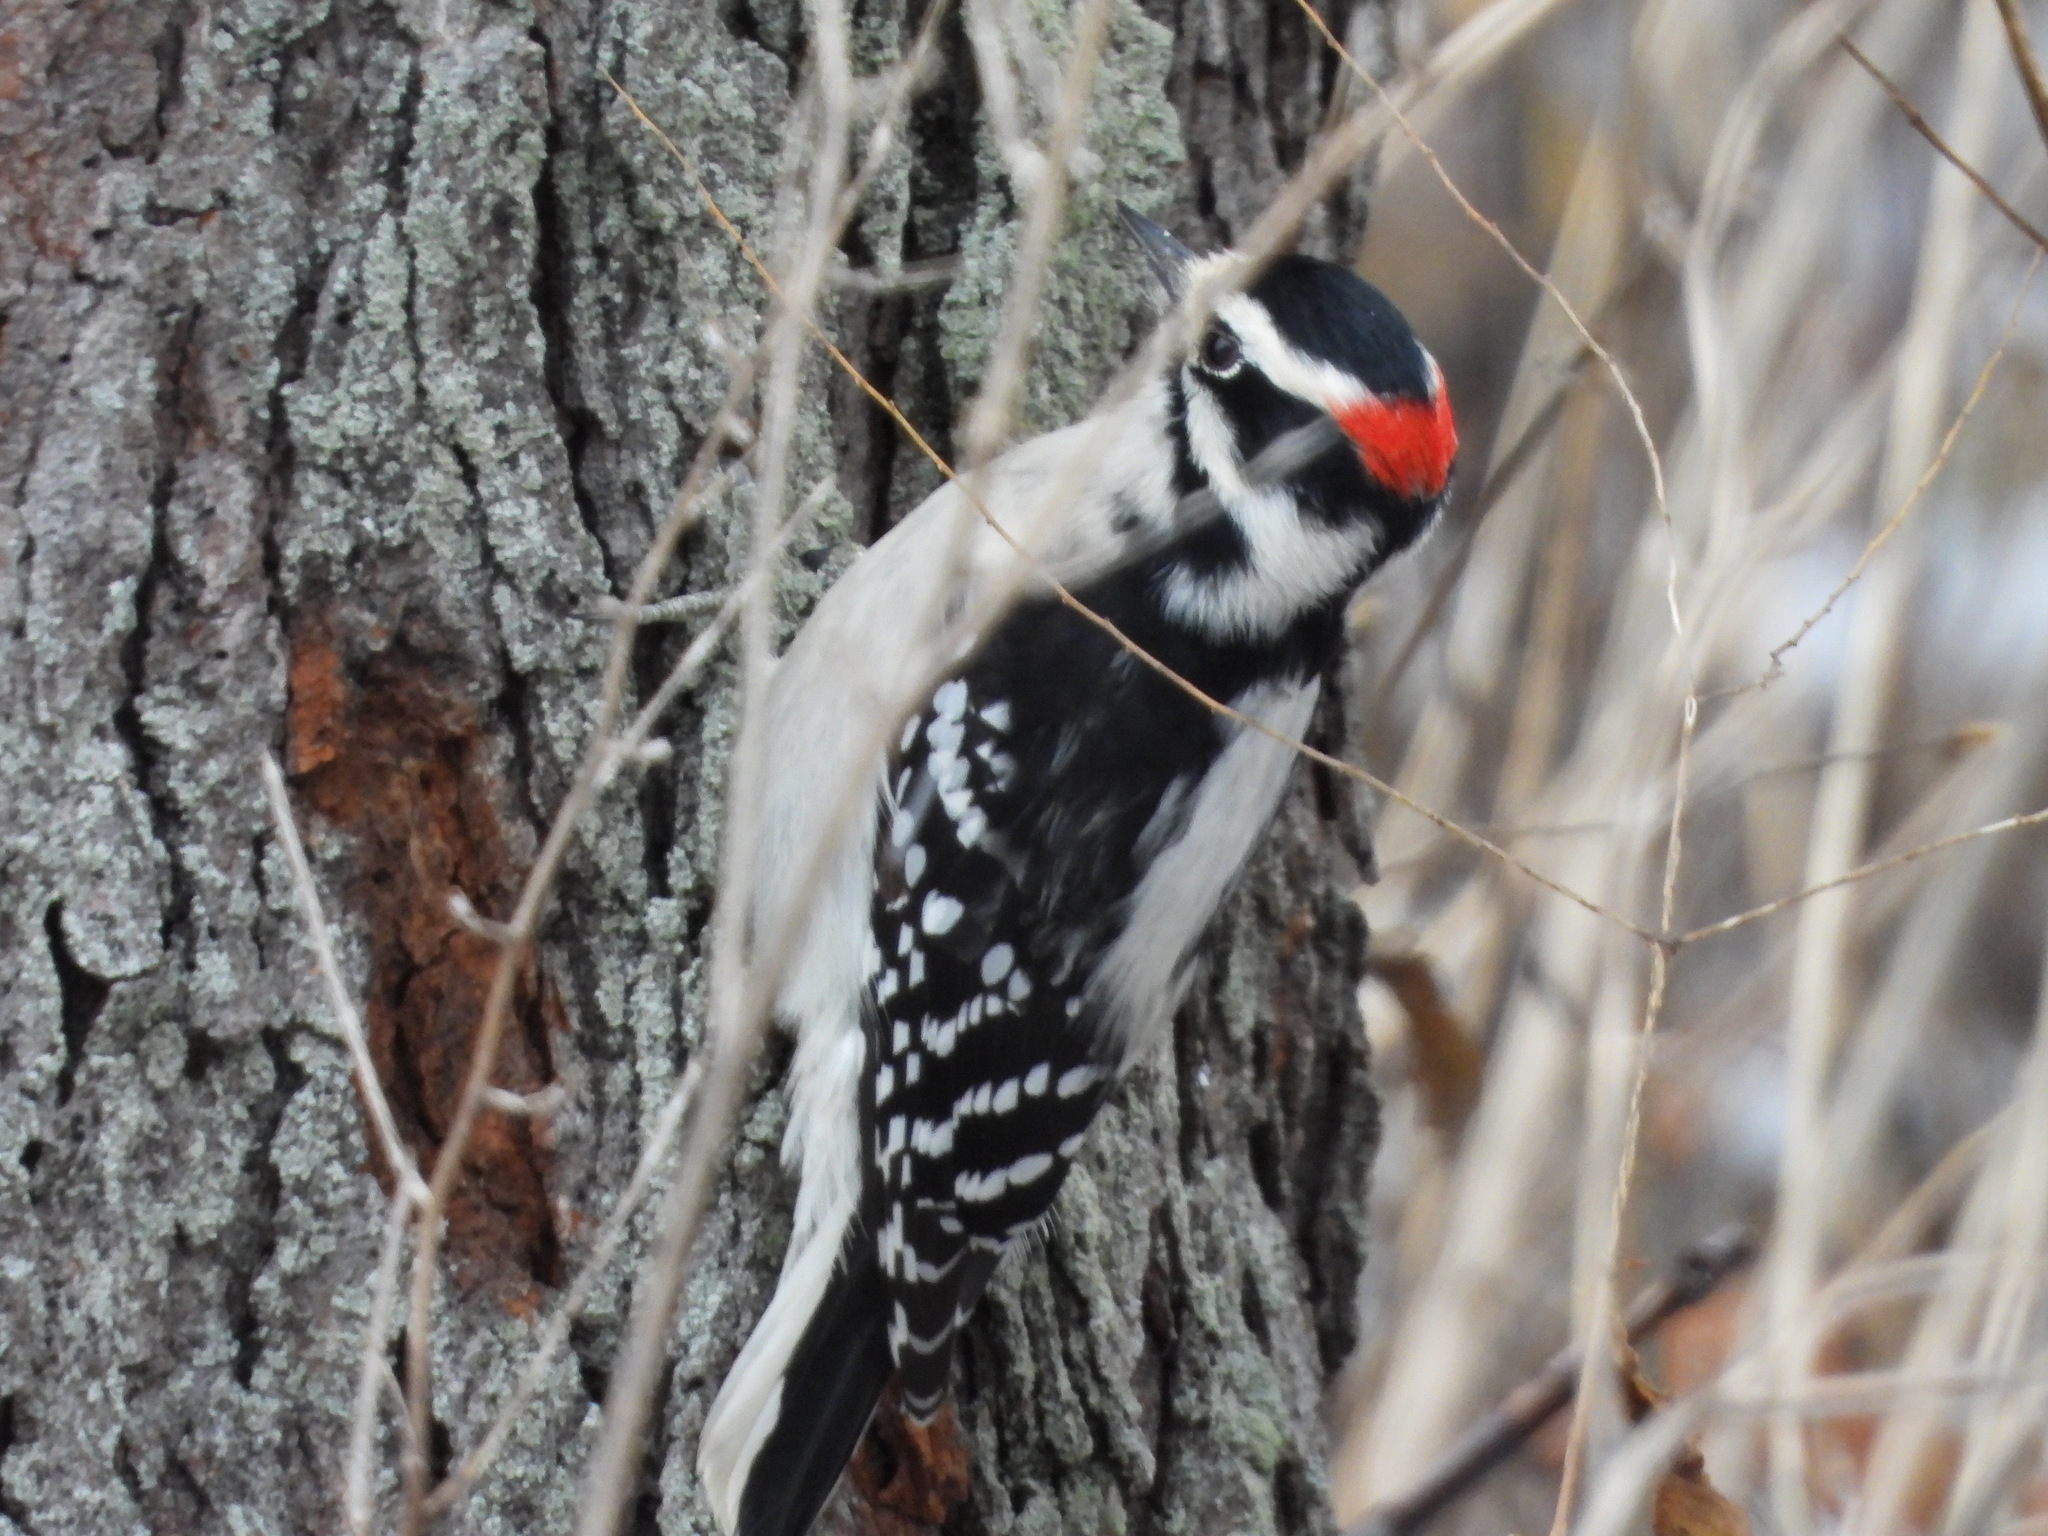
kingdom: Animalia
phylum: Chordata
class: Aves
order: Piciformes
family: Picidae
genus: Dryobates
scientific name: Dryobates pubescens
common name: Downy woodpecker
